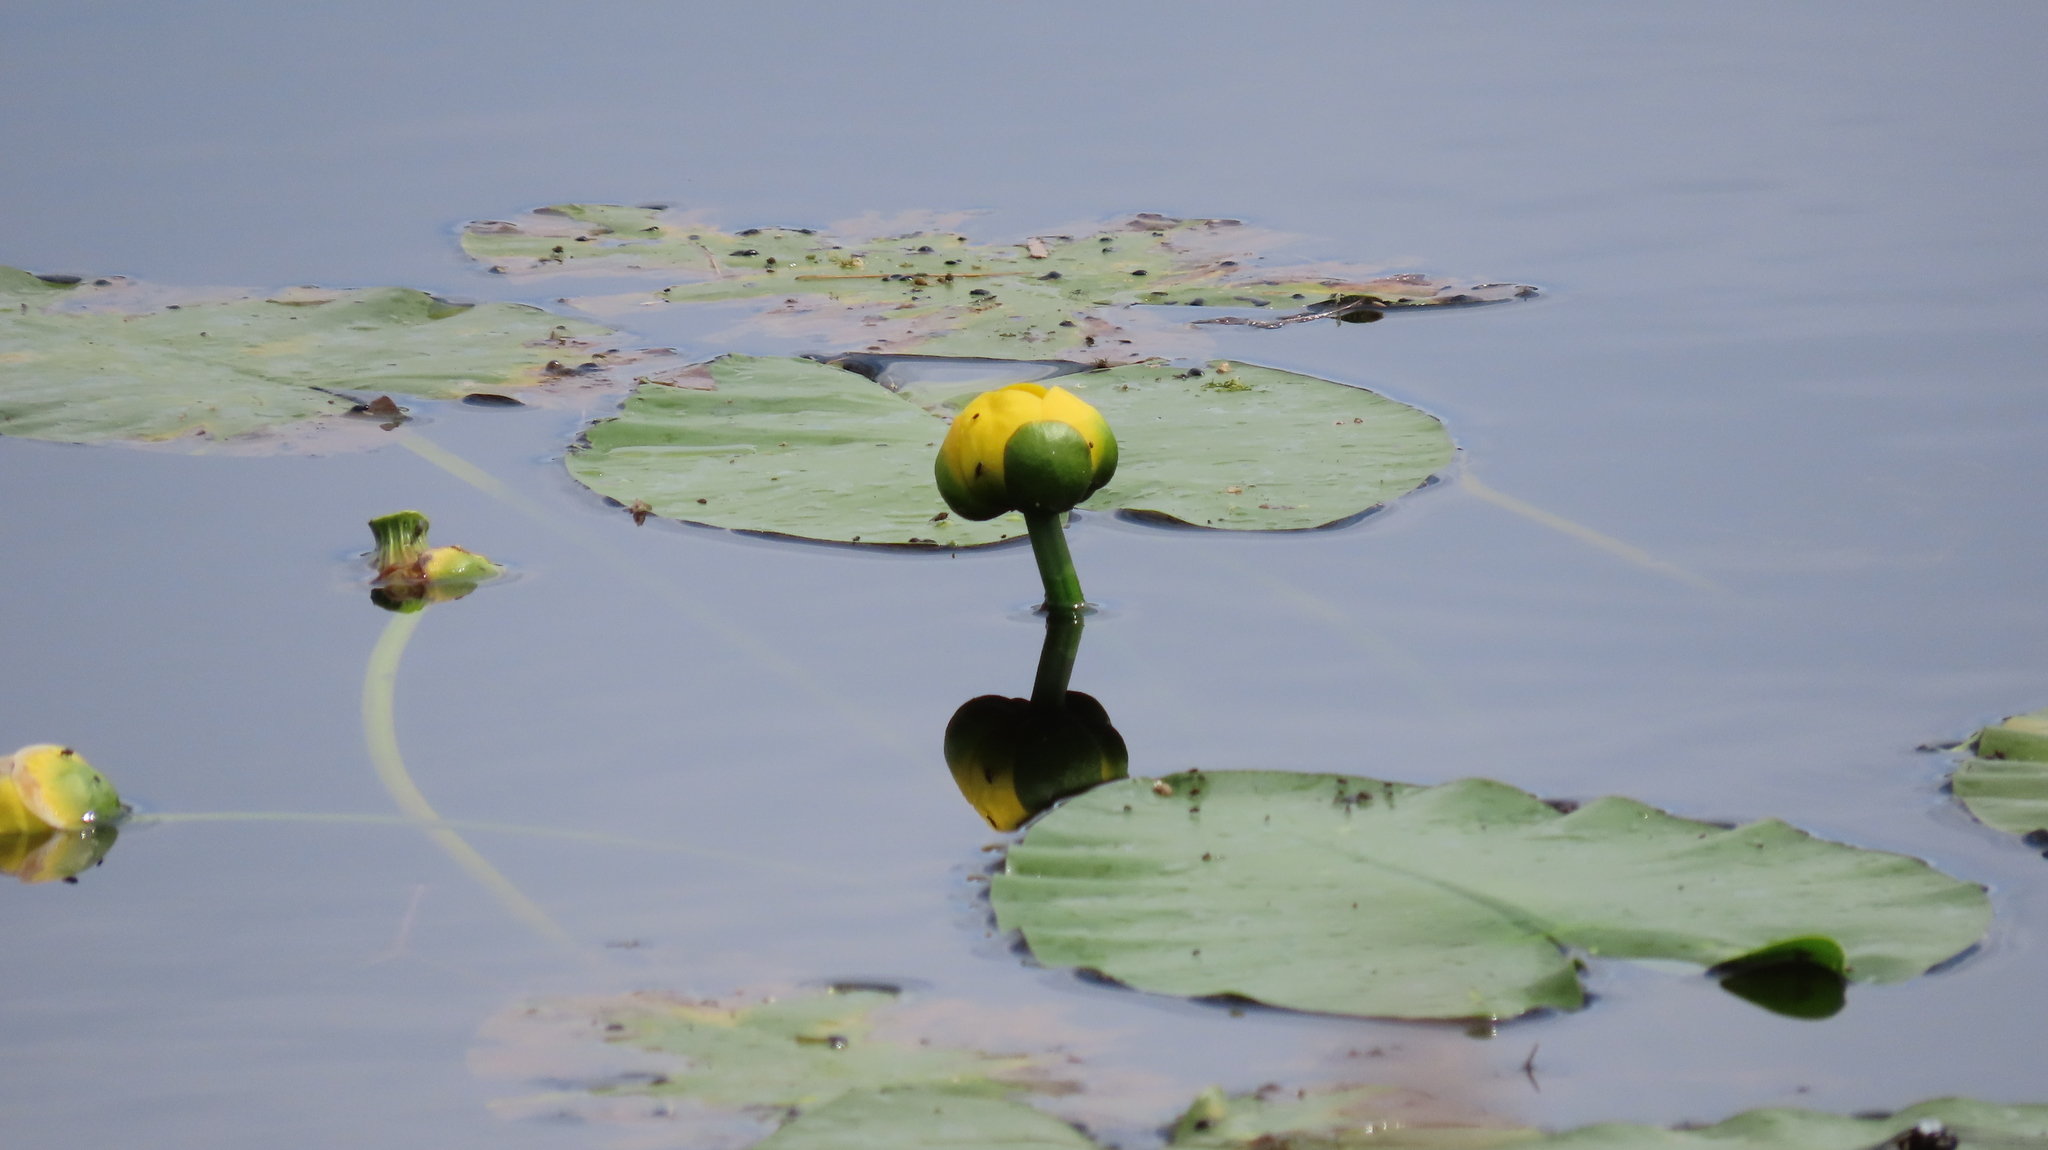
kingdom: Plantae
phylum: Tracheophyta
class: Magnoliopsida
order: Nymphaeales
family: Nymphaeaceae
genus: Nuphar
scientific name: Nuphar variegata
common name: Beaver-root
